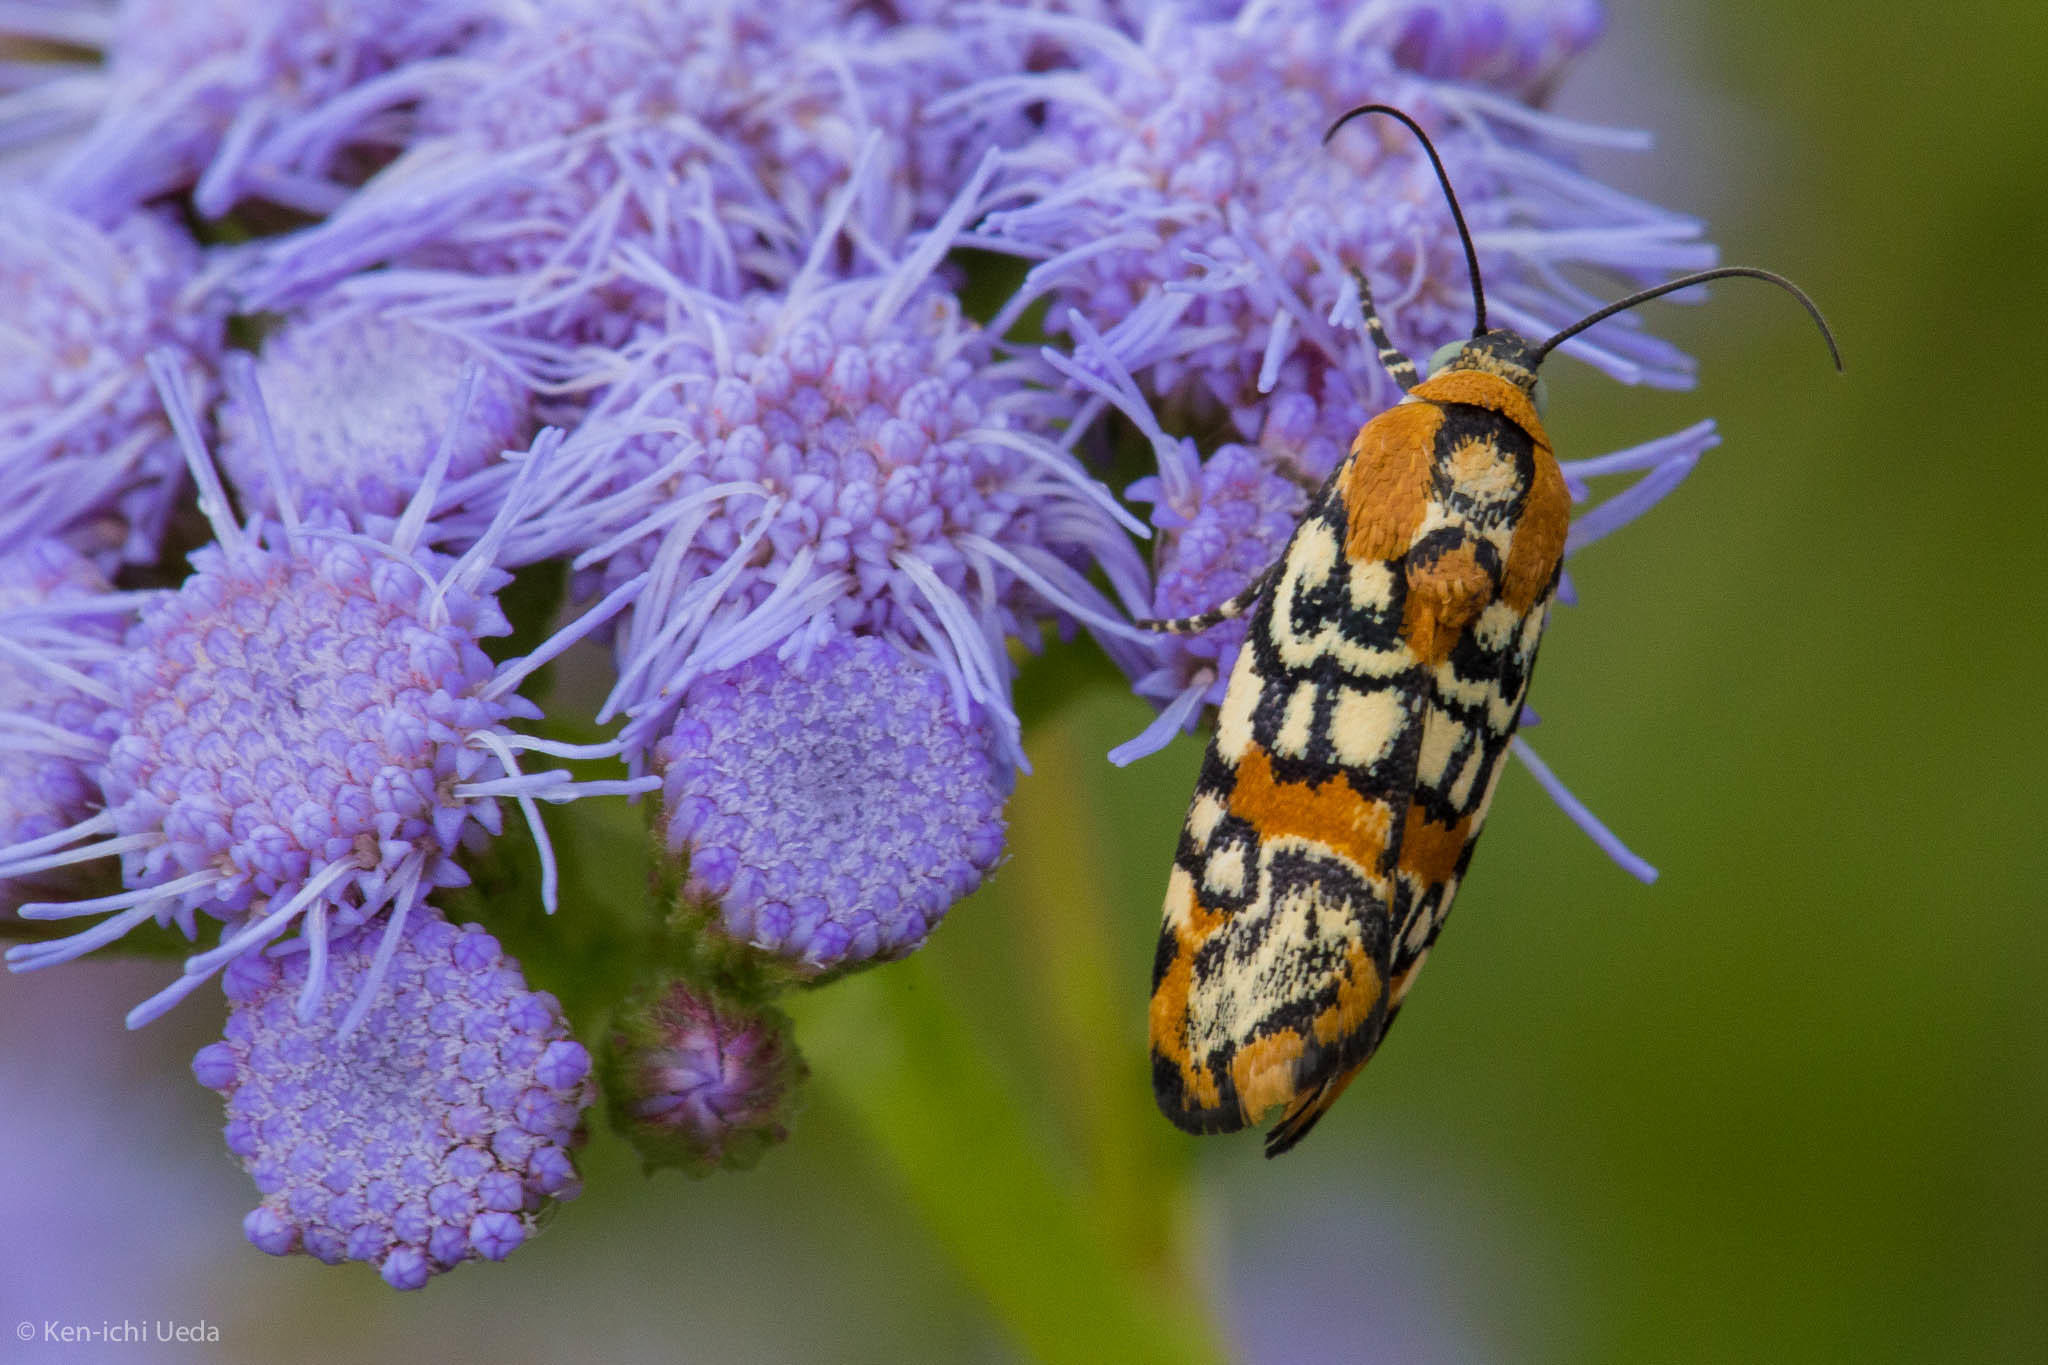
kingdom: Animalia
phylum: Arthropoda
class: Insecta
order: Lepidoptera
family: Noctuidae
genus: Spragueia
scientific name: Spragueia guttata
